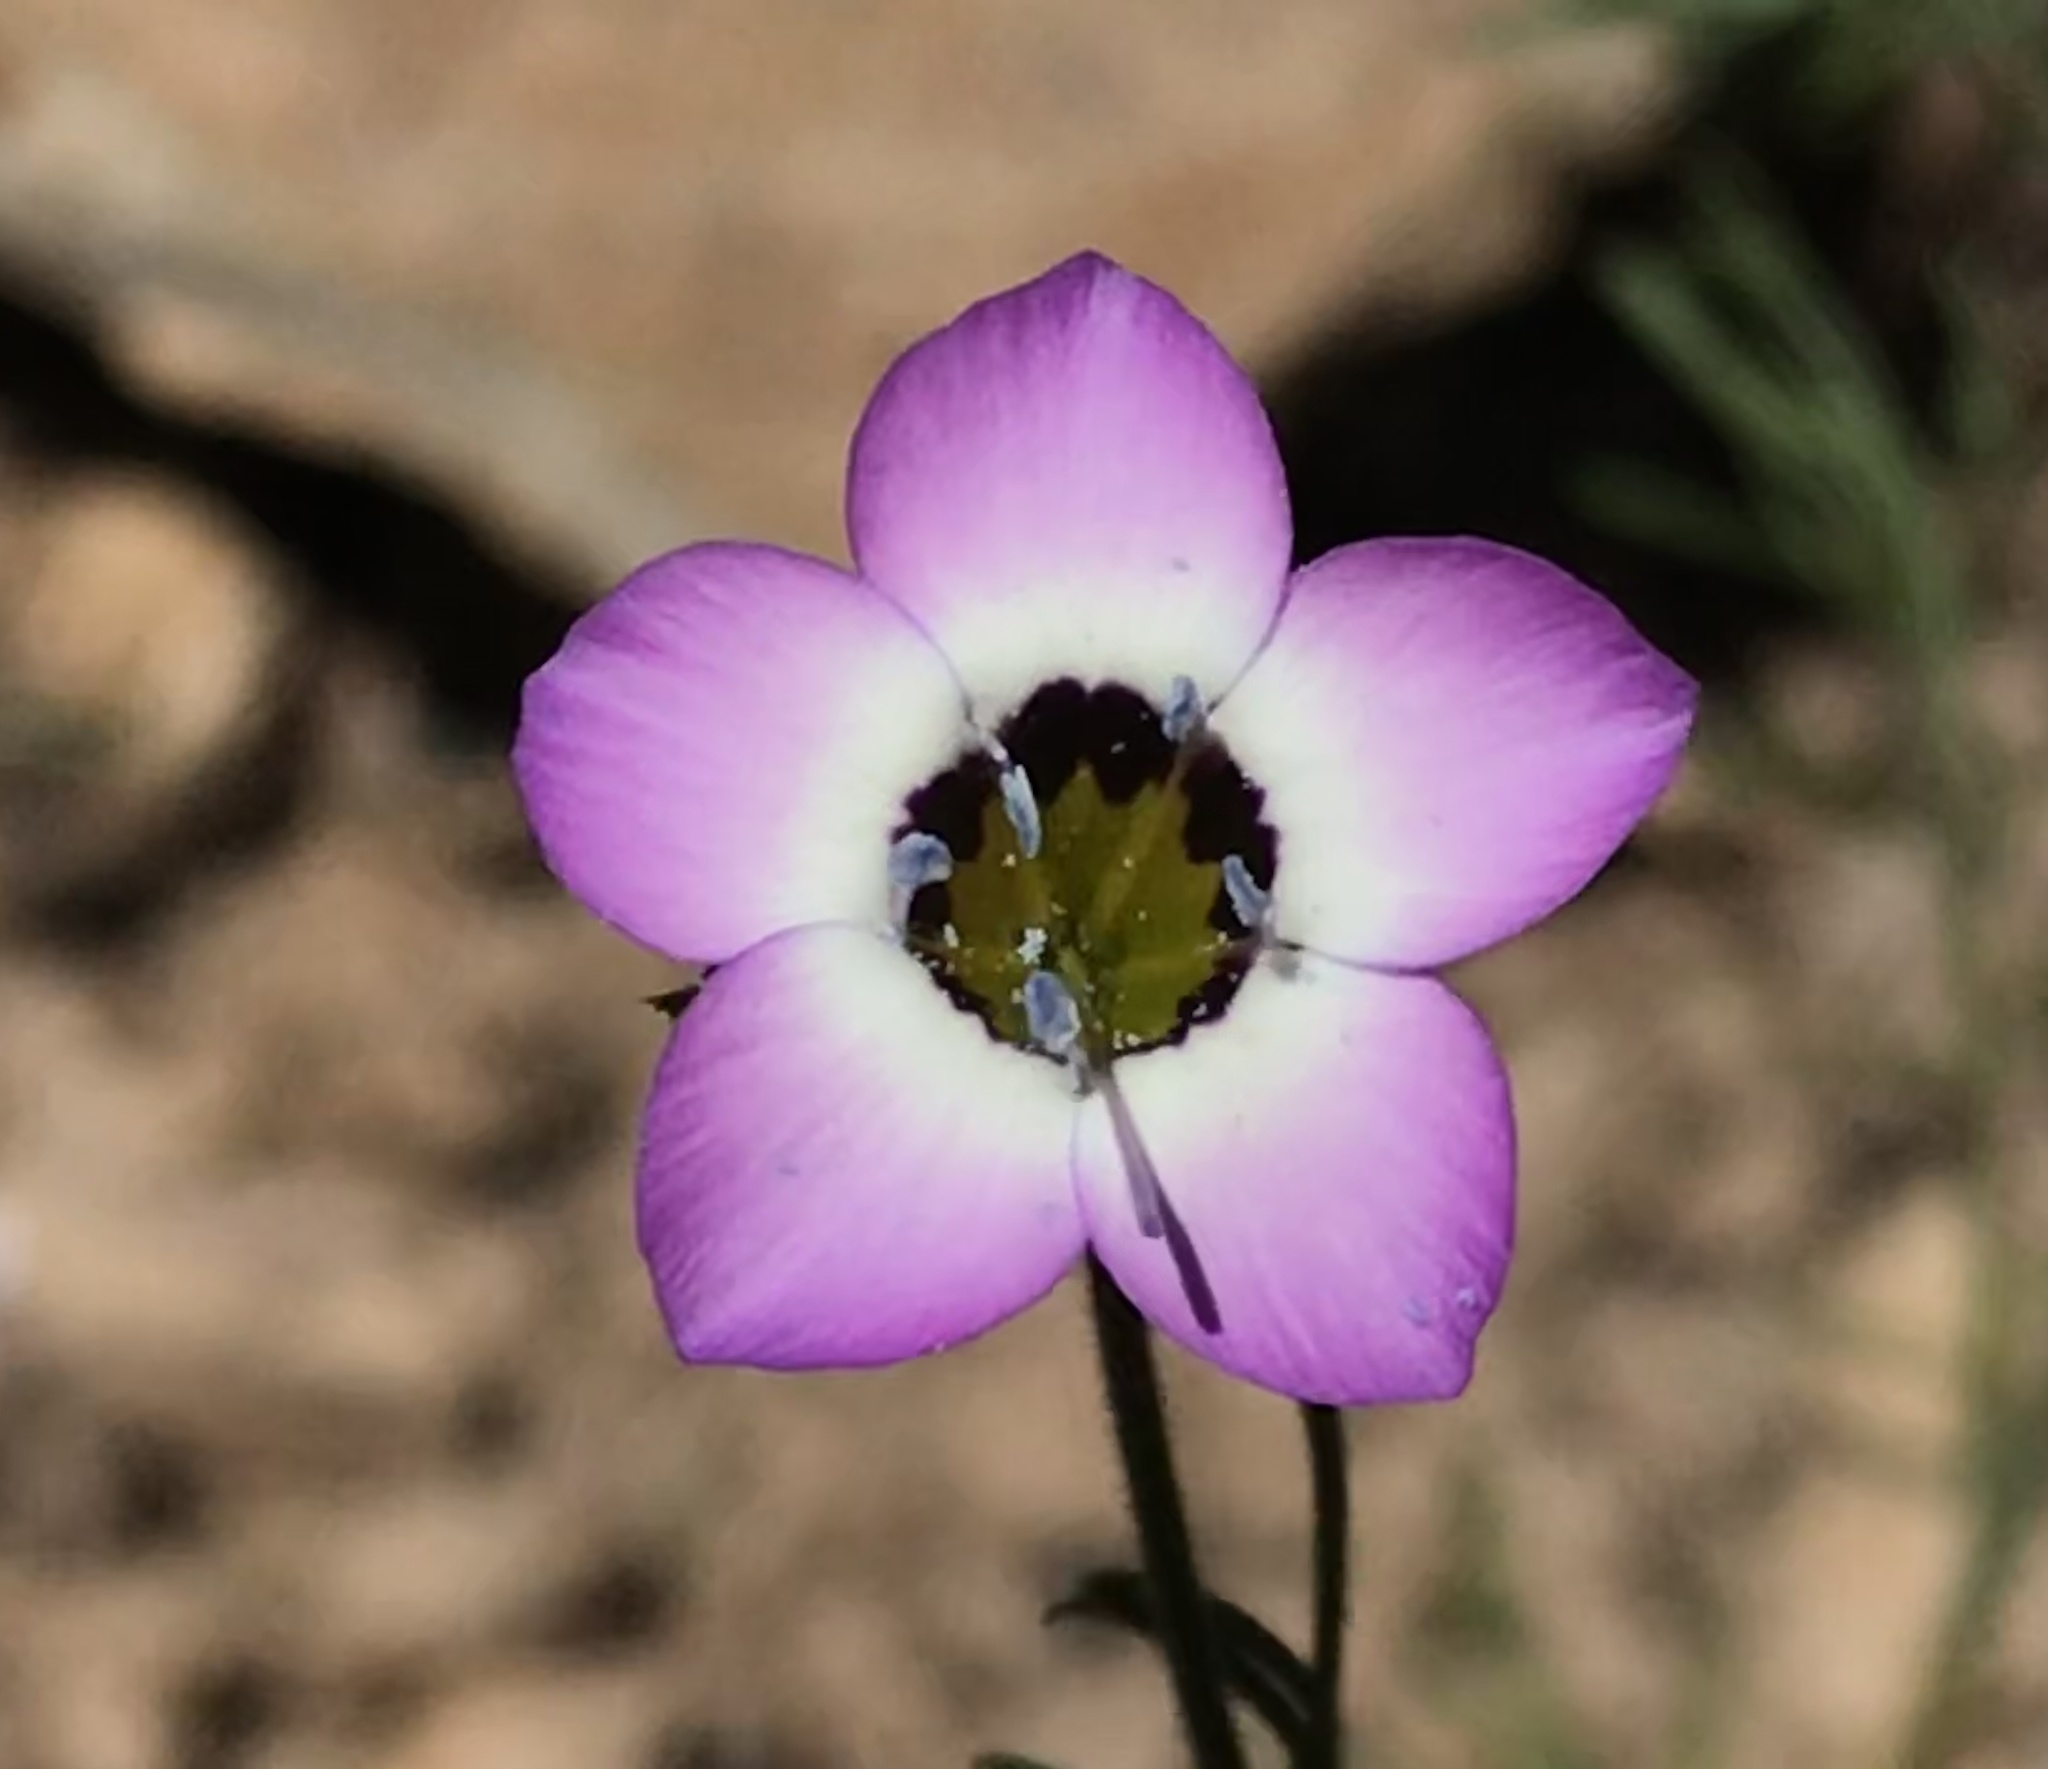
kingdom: Plantae
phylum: Tracheophyta
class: Magnoliopsida
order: Ericales
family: Polemoniaceae
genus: Gilia
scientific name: Gilia tricolor
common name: Bird's-eyes
